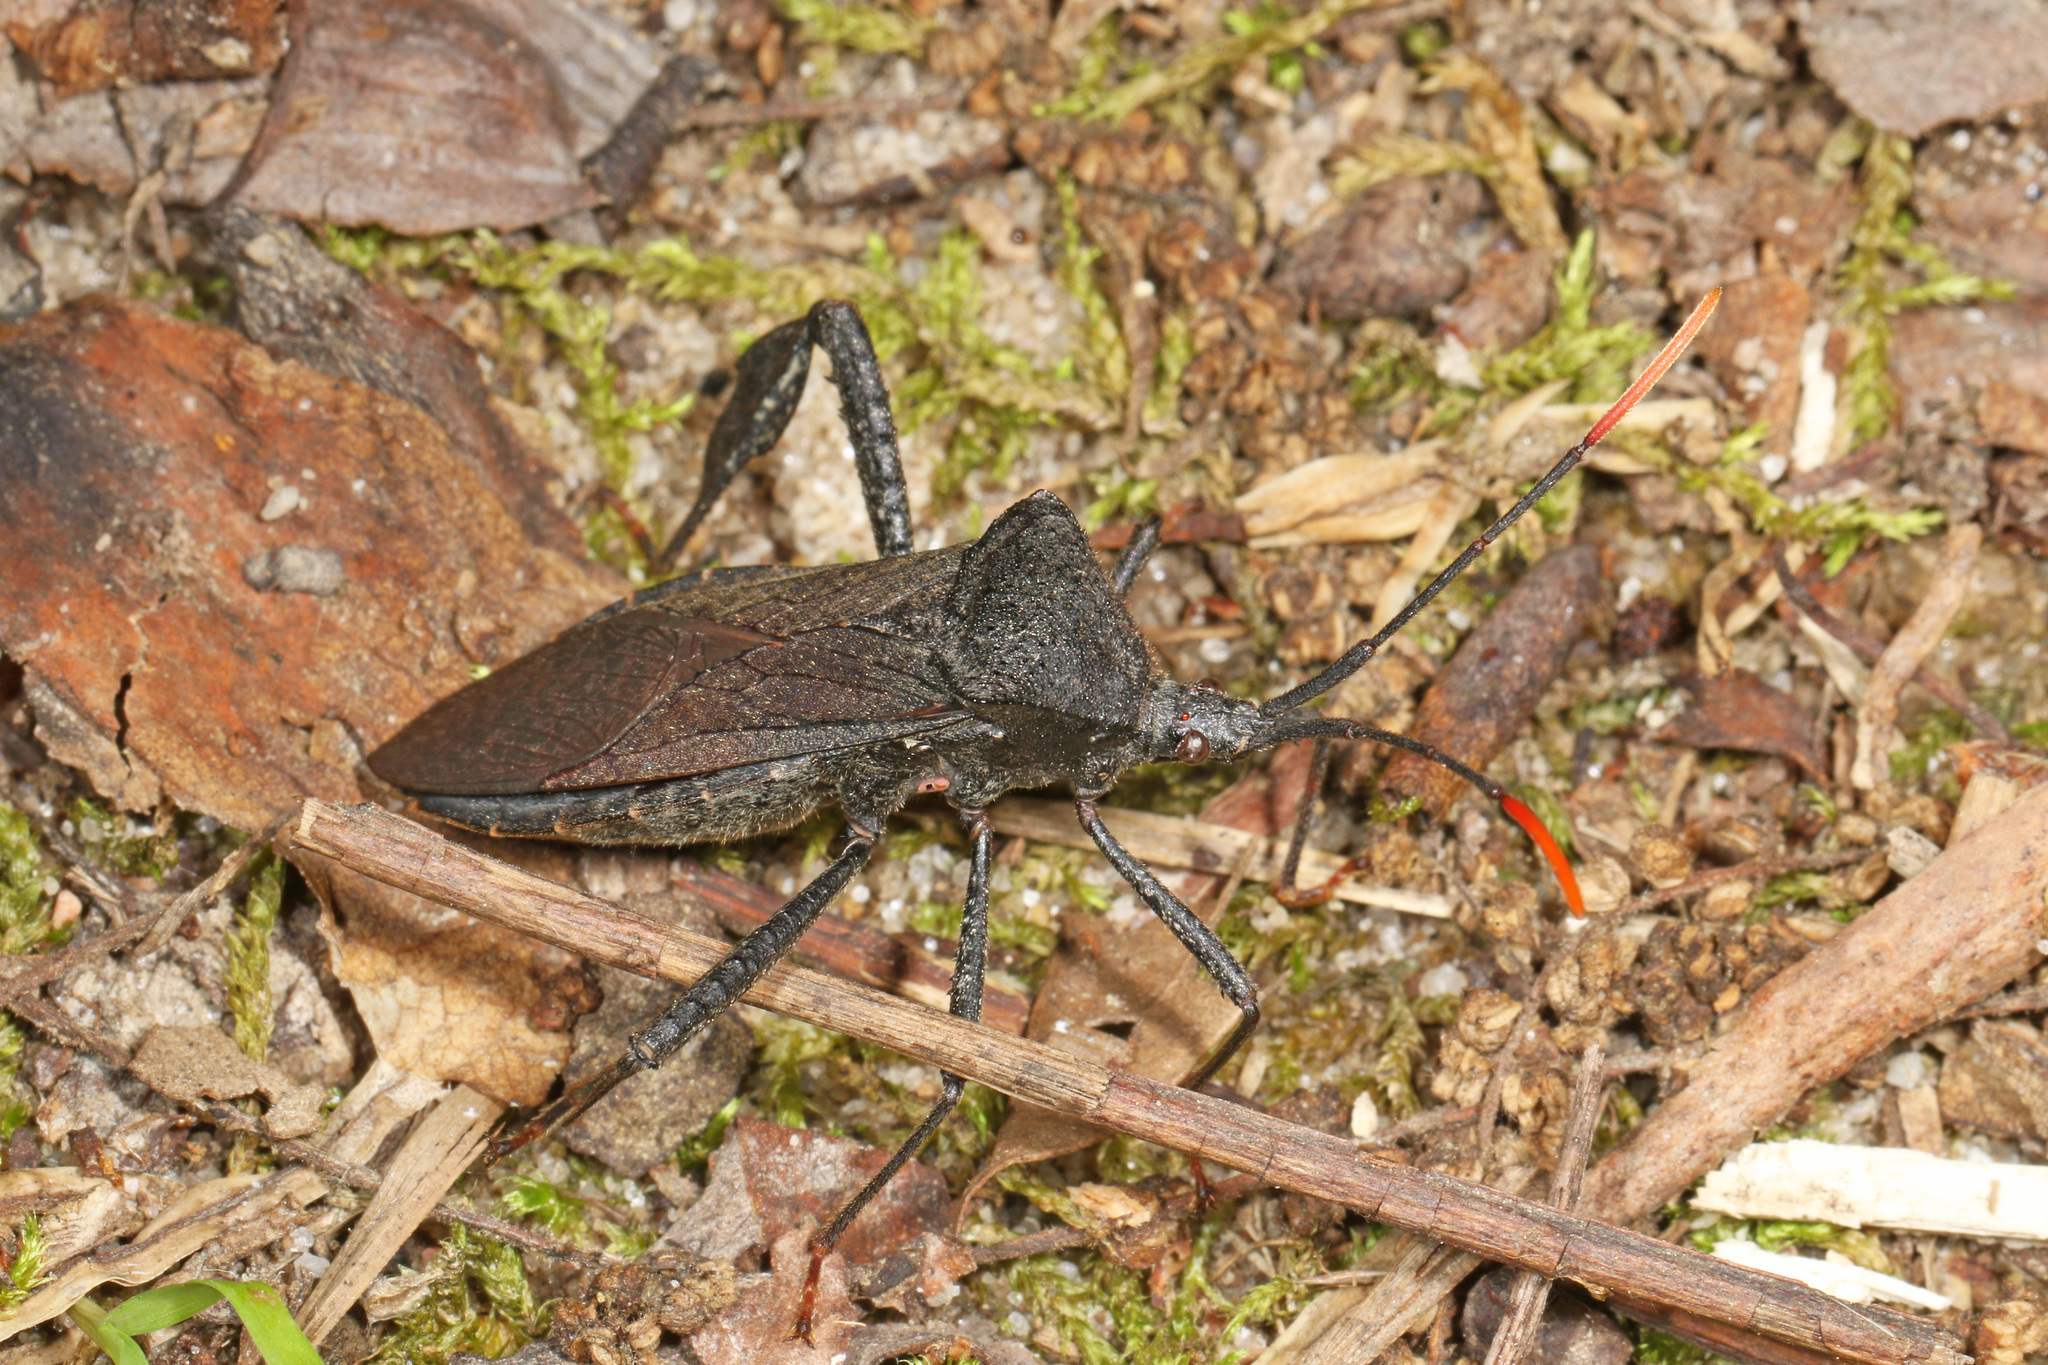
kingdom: Animalia
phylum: Arthropoda
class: Insecta
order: Hemiptera
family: Coreidae
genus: Acanthocephala
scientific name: Acanthocephala terminalis
